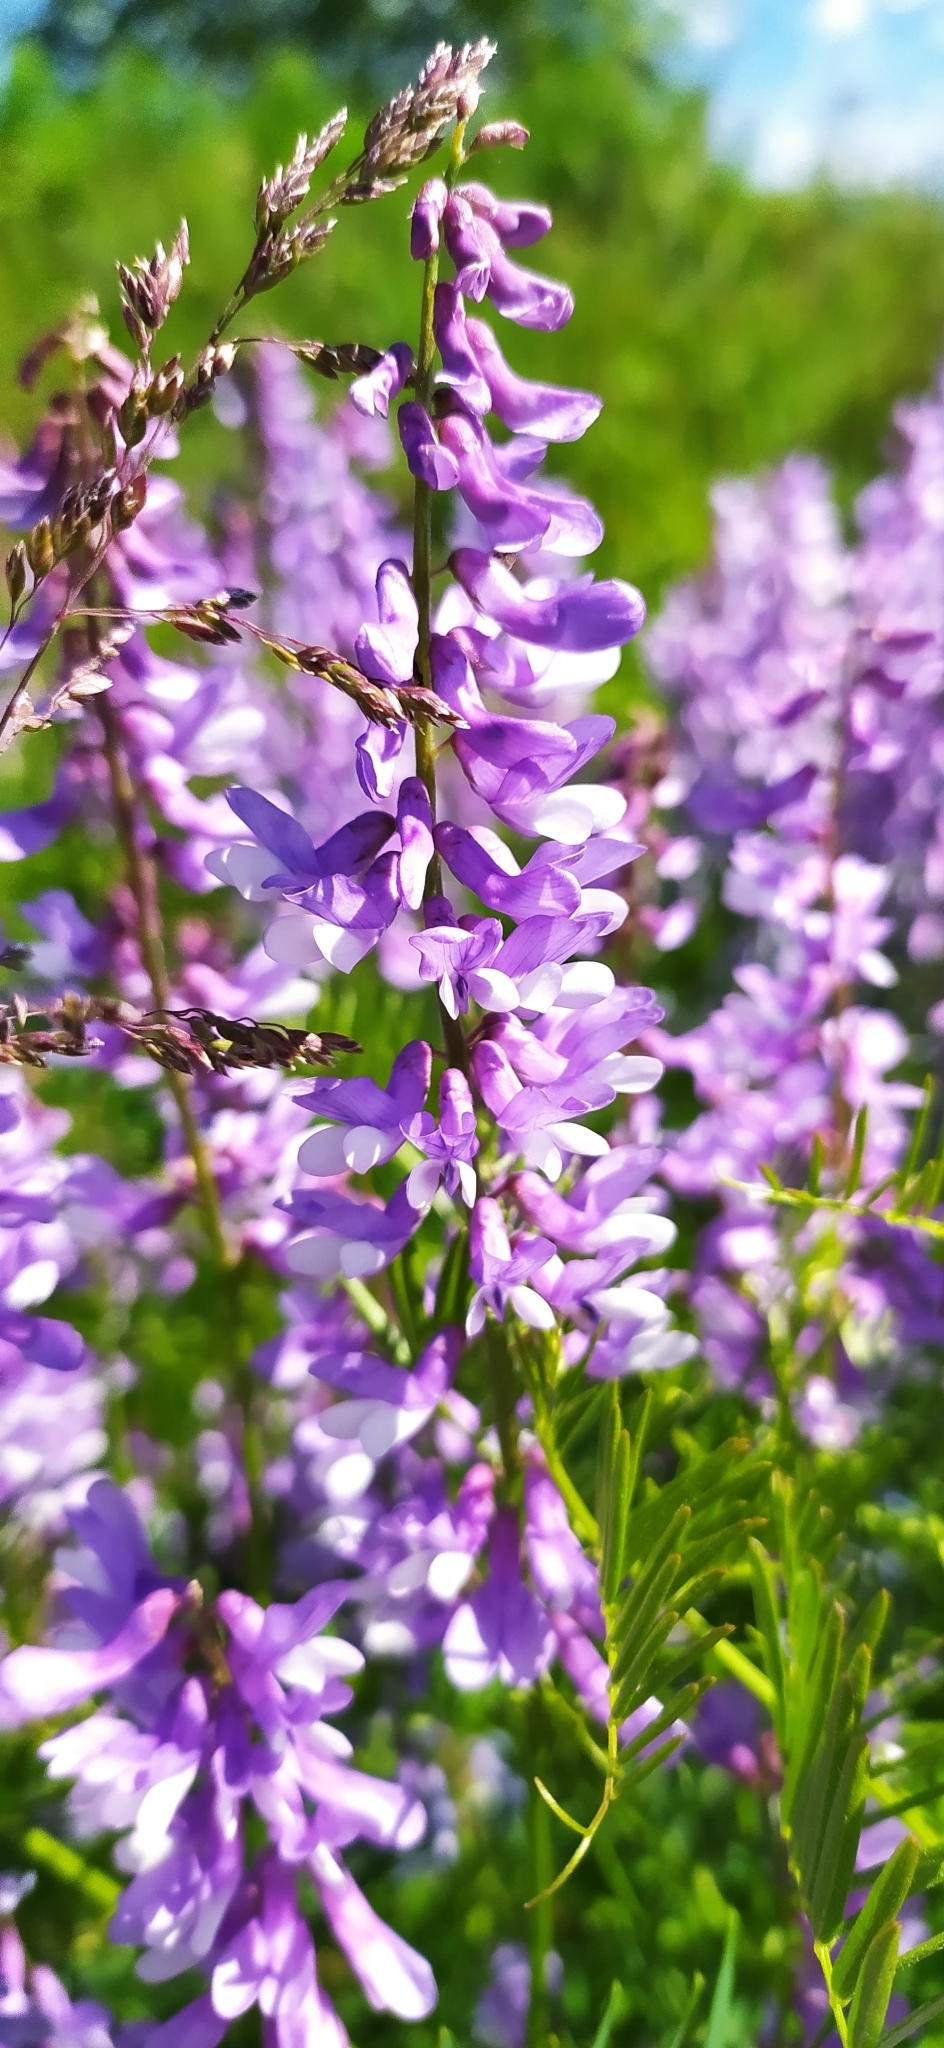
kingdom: Plantae
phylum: Tracheophyta
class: Magnoliopsida
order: Fabales
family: Fabaceae
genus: Vicia
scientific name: Vicia tenuifolia
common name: Fine-leaved vetch
